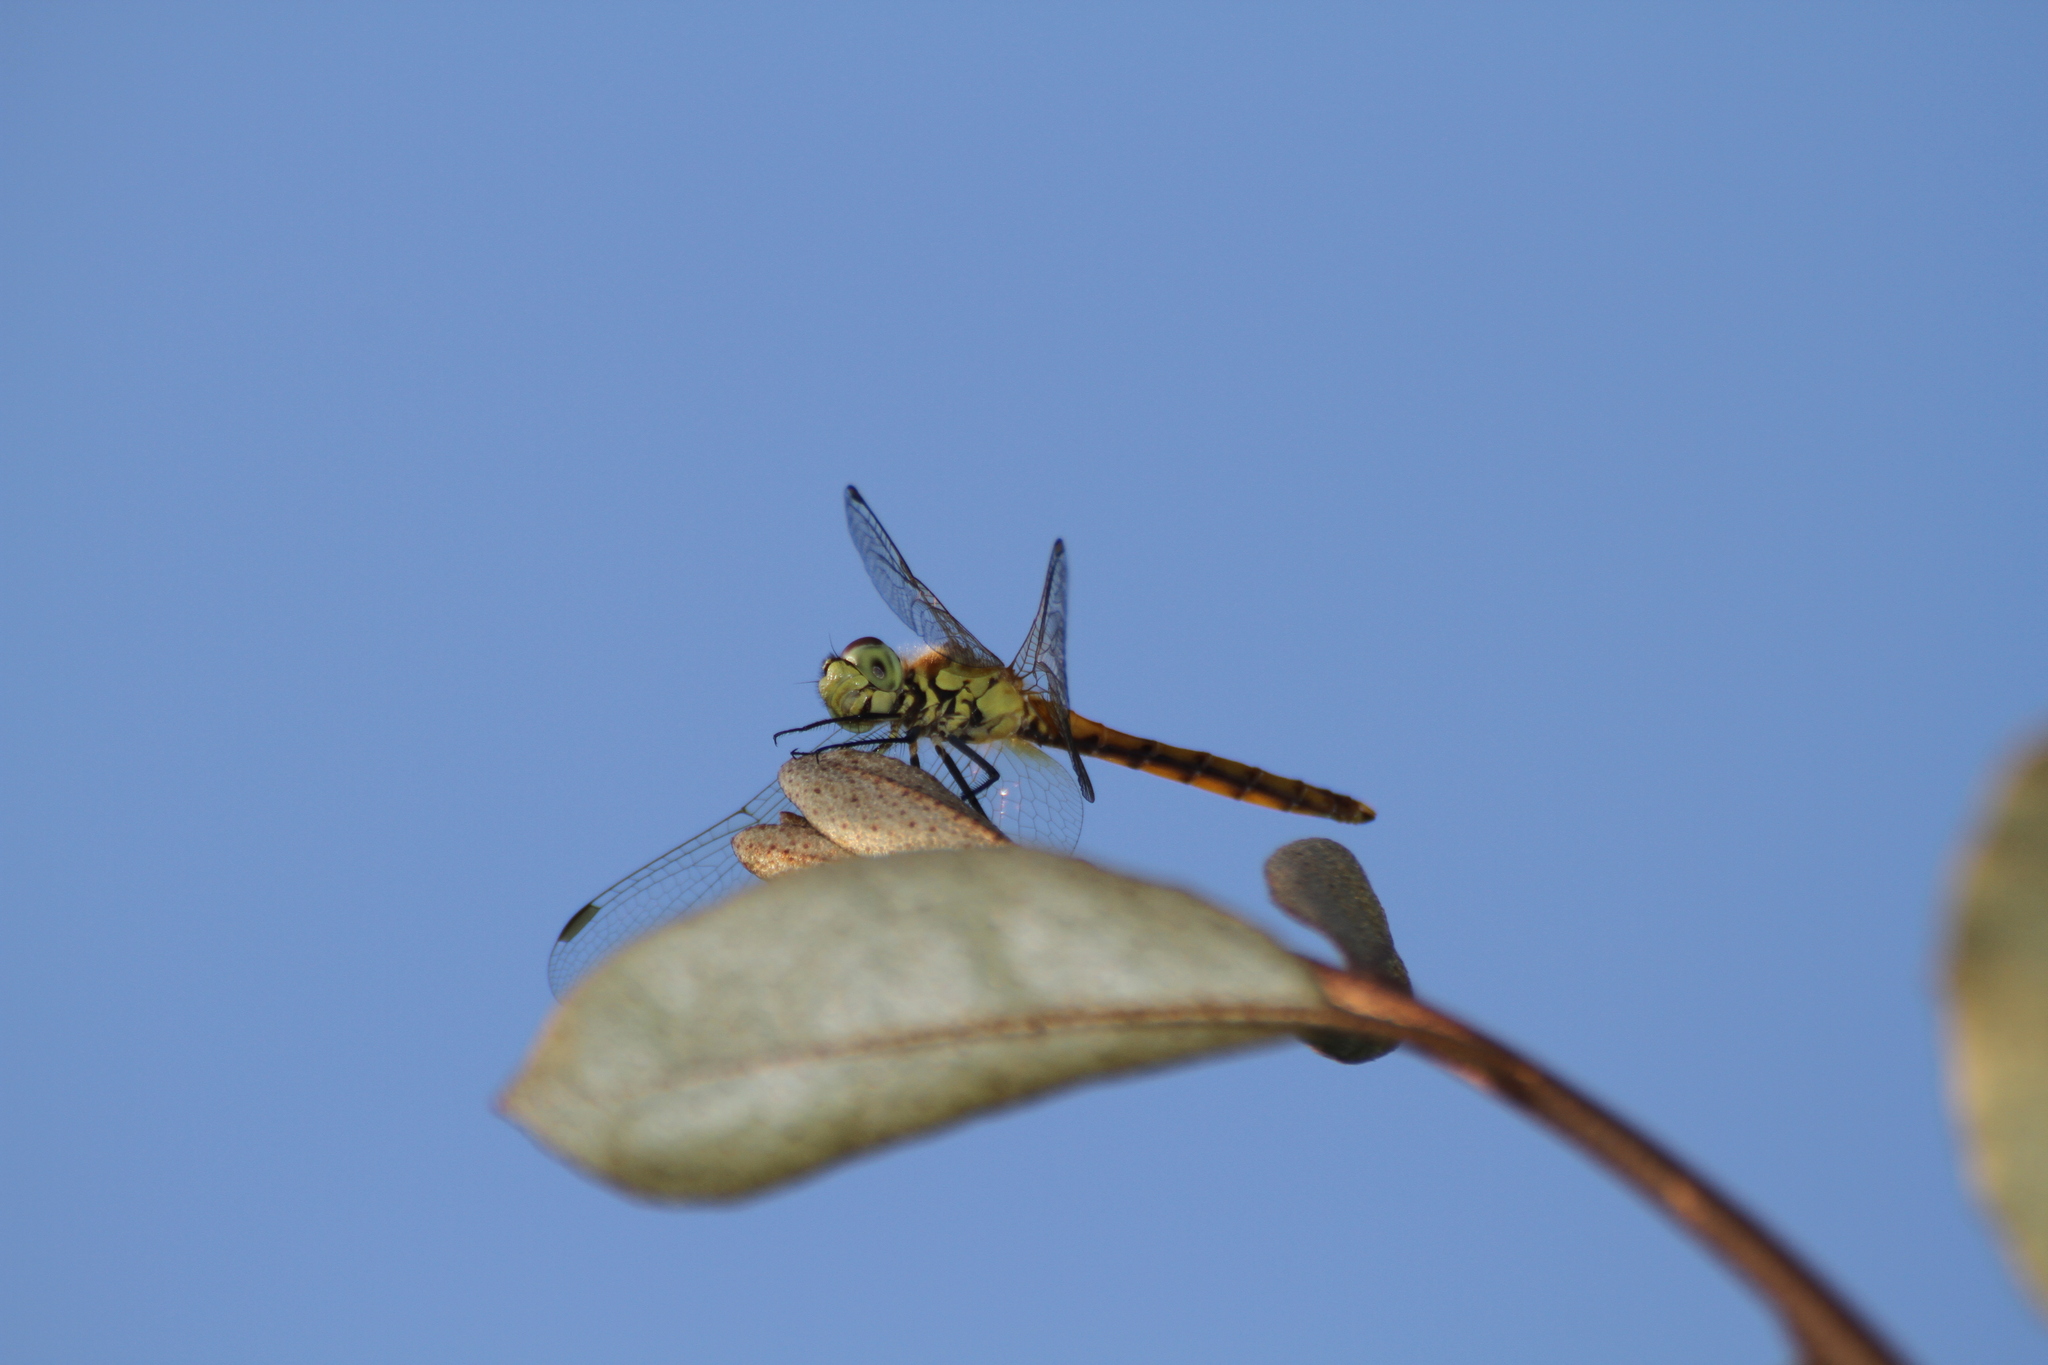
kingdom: Animalia
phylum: Arthropoda
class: Insecta
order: Odonata
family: Libellulidae
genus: Sympetrum
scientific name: Sympetrum depressiusculum
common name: Spotted darter
